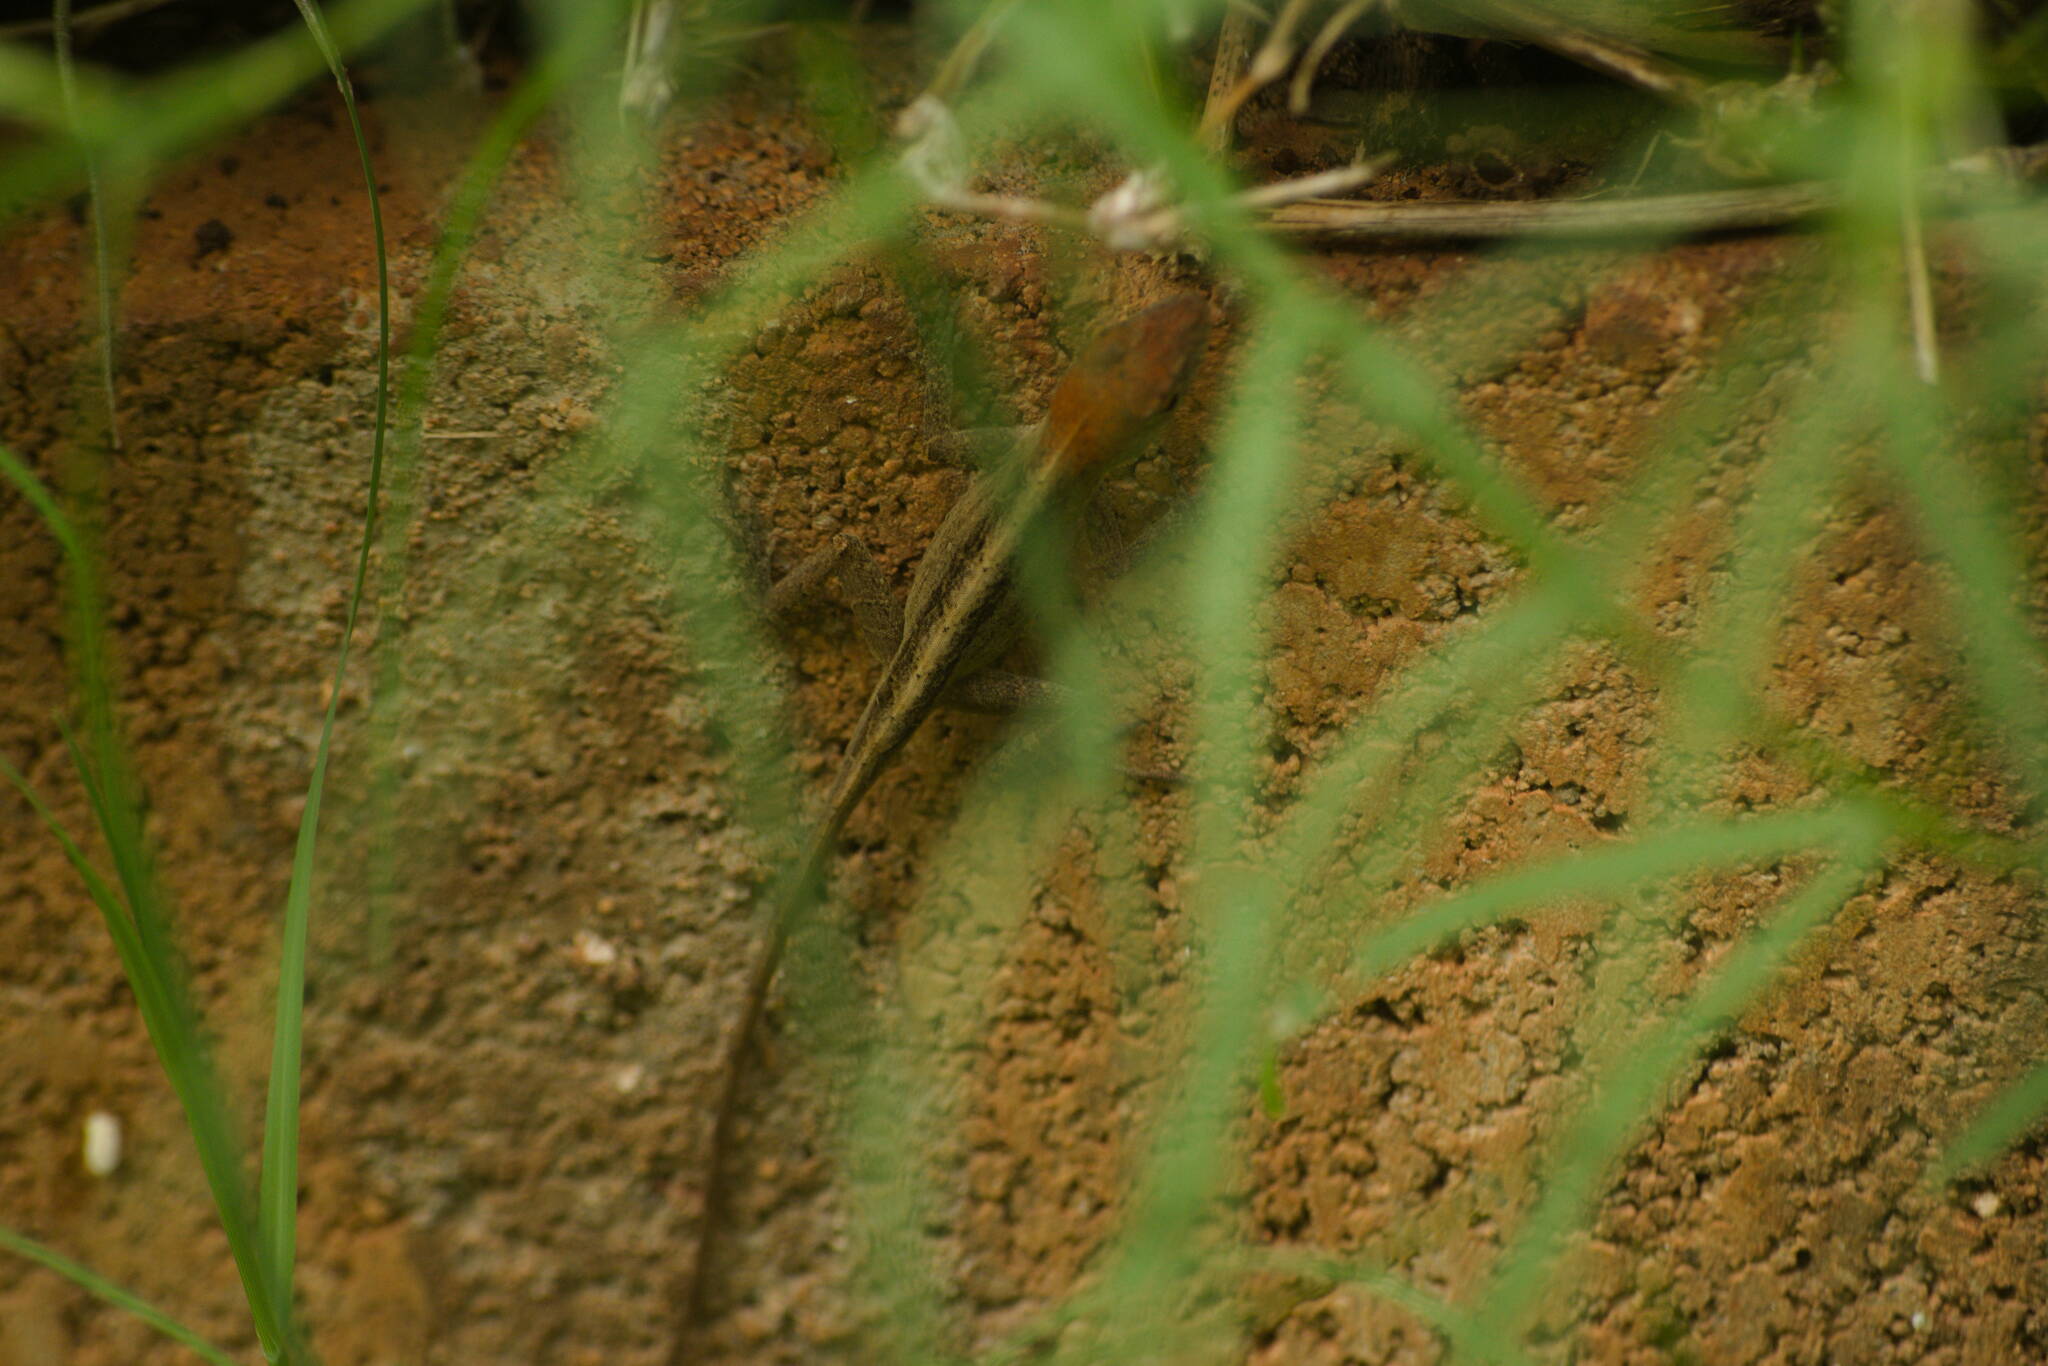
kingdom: Animalia
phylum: Chordata
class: Squamata
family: Dactyloidae
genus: Anolis
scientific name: Anolis sagrei
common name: Brown anole
